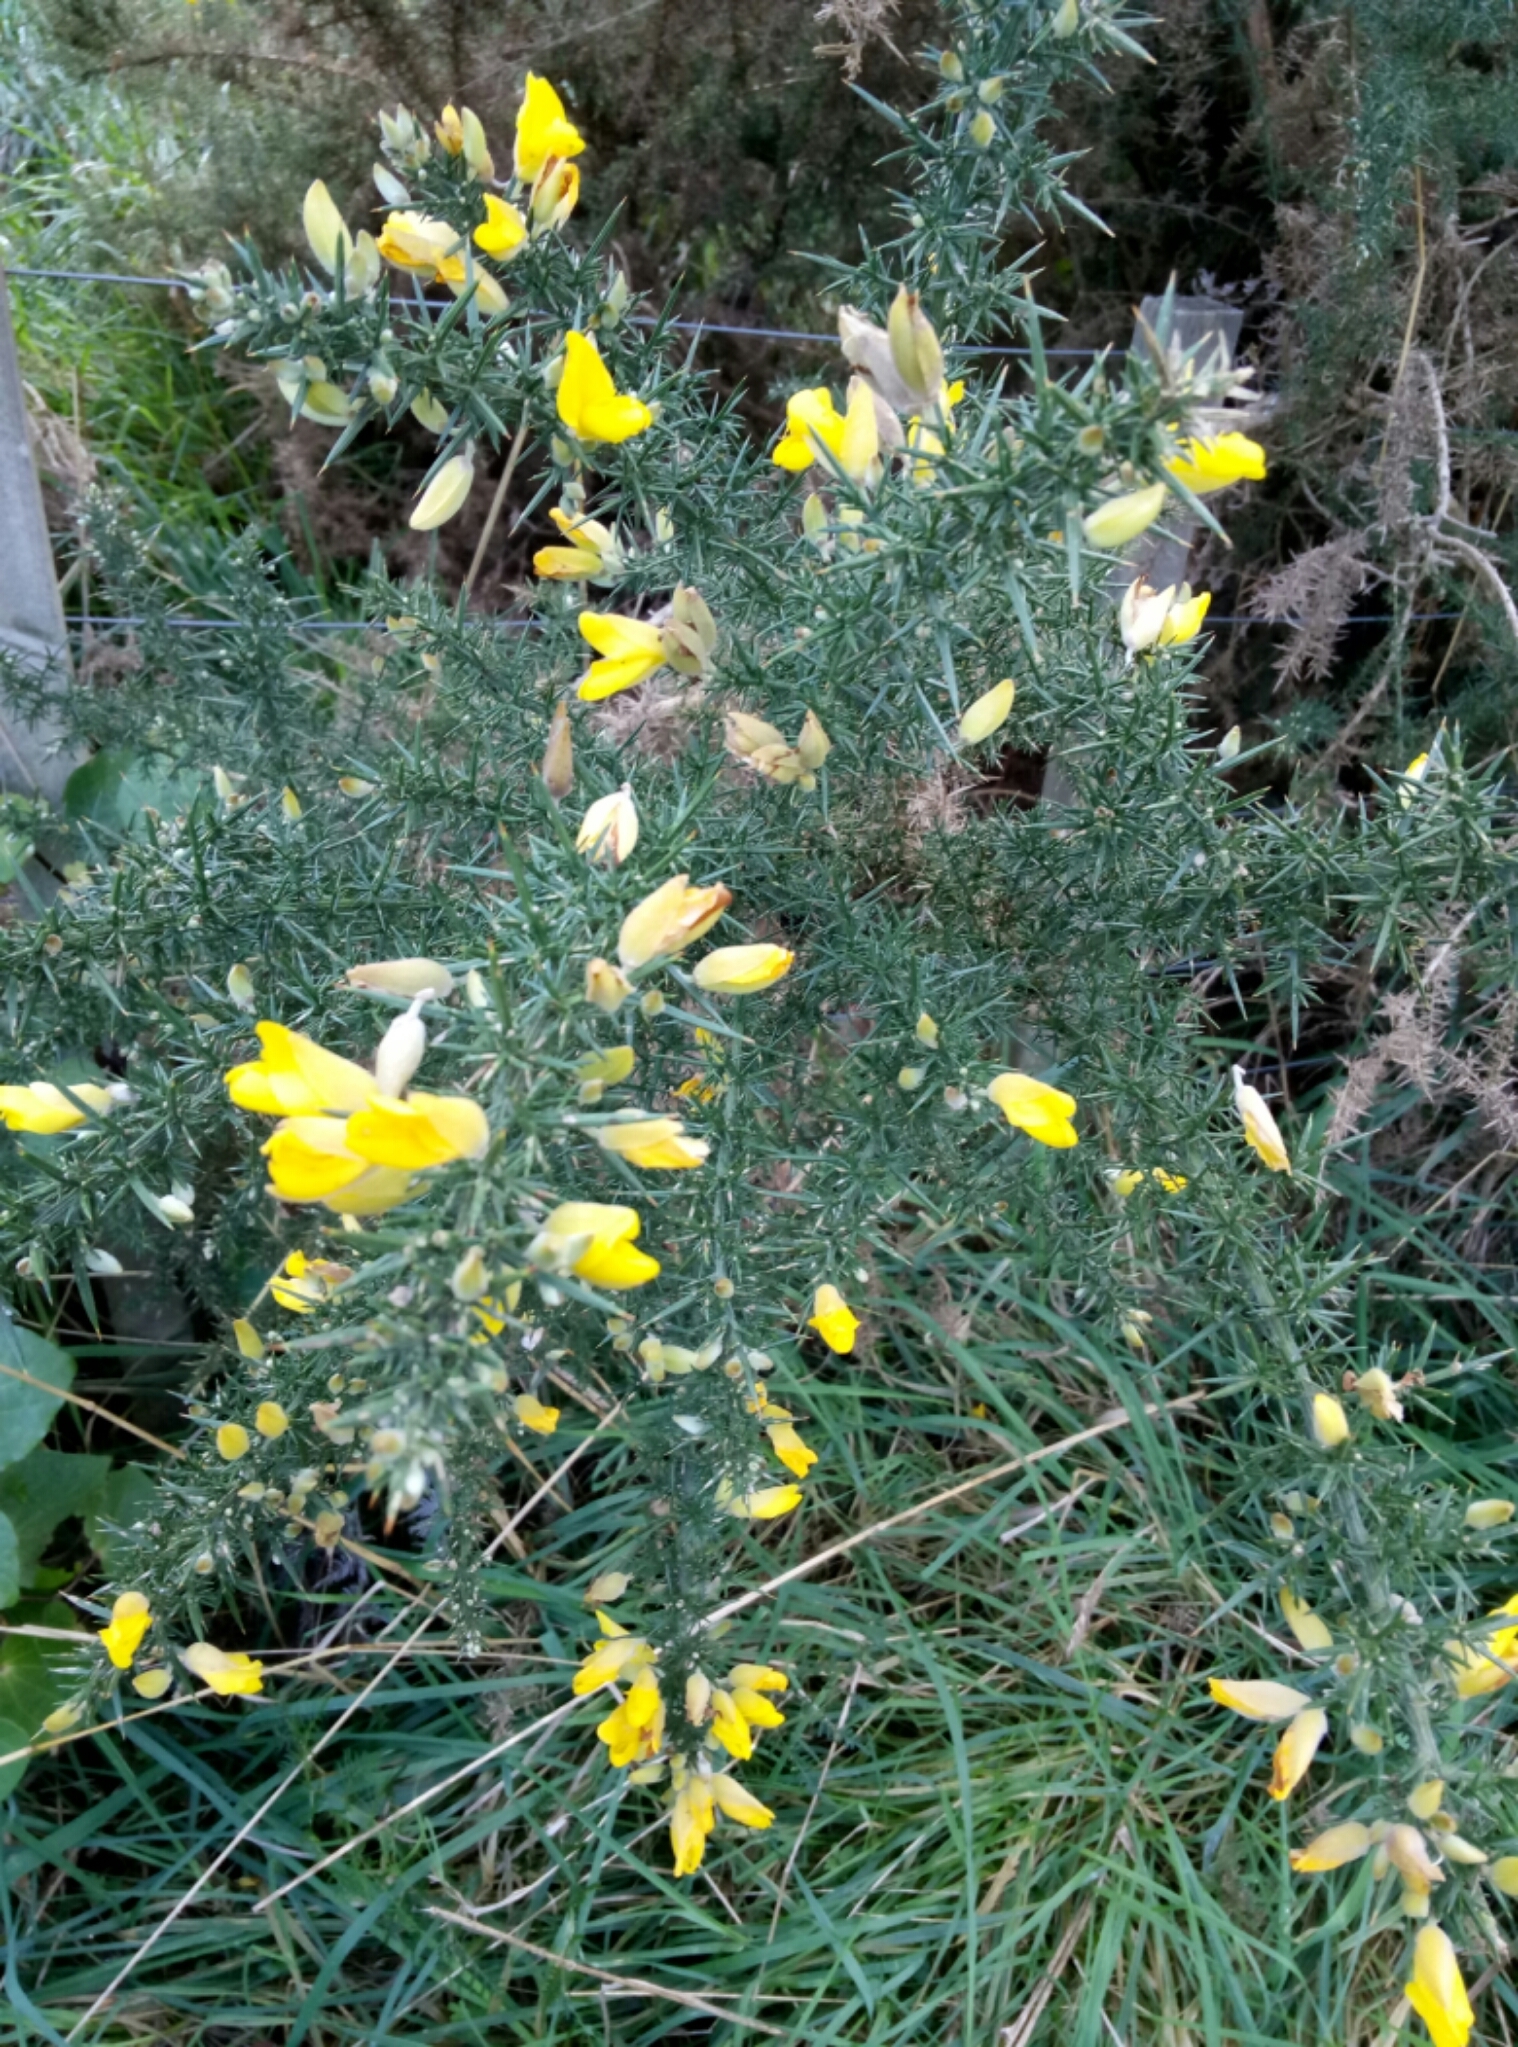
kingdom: Plantae
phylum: Tracheophyta
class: Magnoliopsida
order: Fabales
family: Fabaceae
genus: Ulex
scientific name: Ulex europaeus
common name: Common gorse
